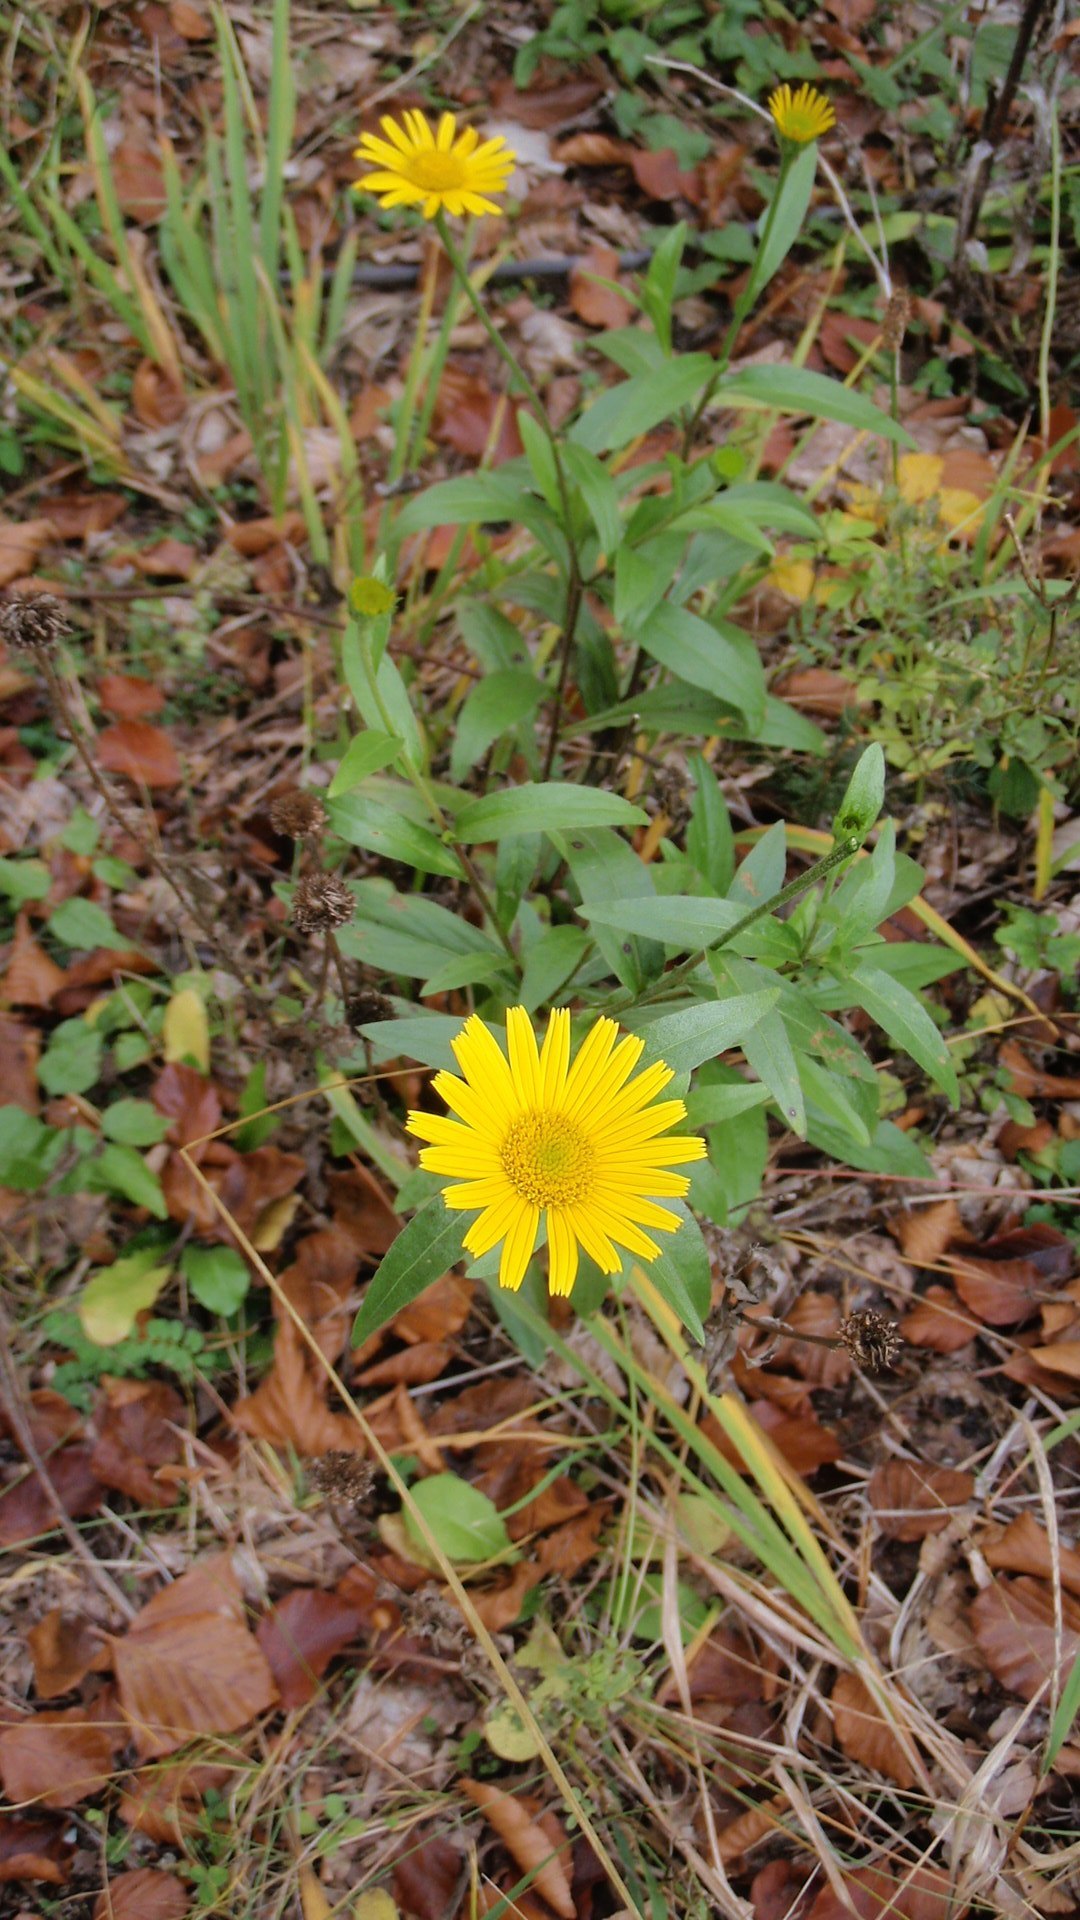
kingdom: Plantae
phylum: Tracheophyta
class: Magnoliopsida
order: Asterales
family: Asteraceae
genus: Buphthalmum
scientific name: Buphthalmum salicifolium
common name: Willow-leaved yellow-oxeye
